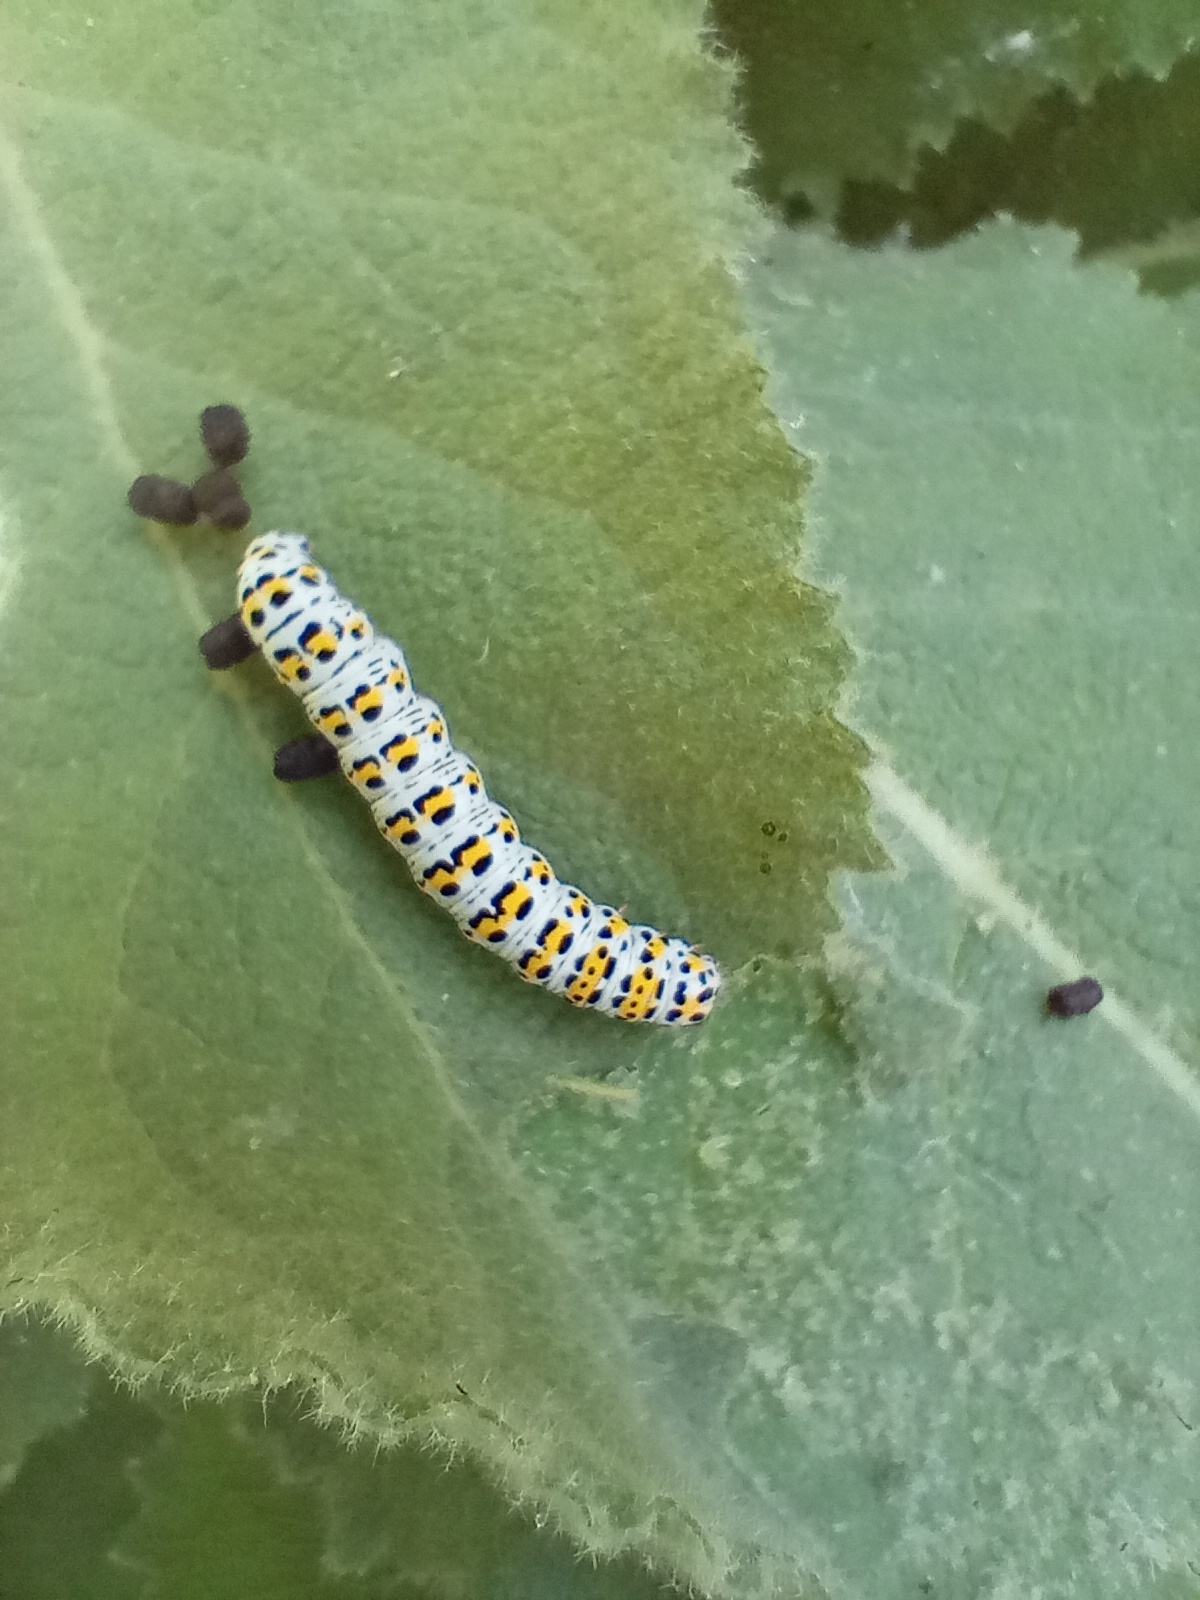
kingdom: Animalia
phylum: Arthropoda
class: Insecta
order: Lepidoptera
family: Noctuidae
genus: Cucullia
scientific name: Cucullia verbasci
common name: Mullein
